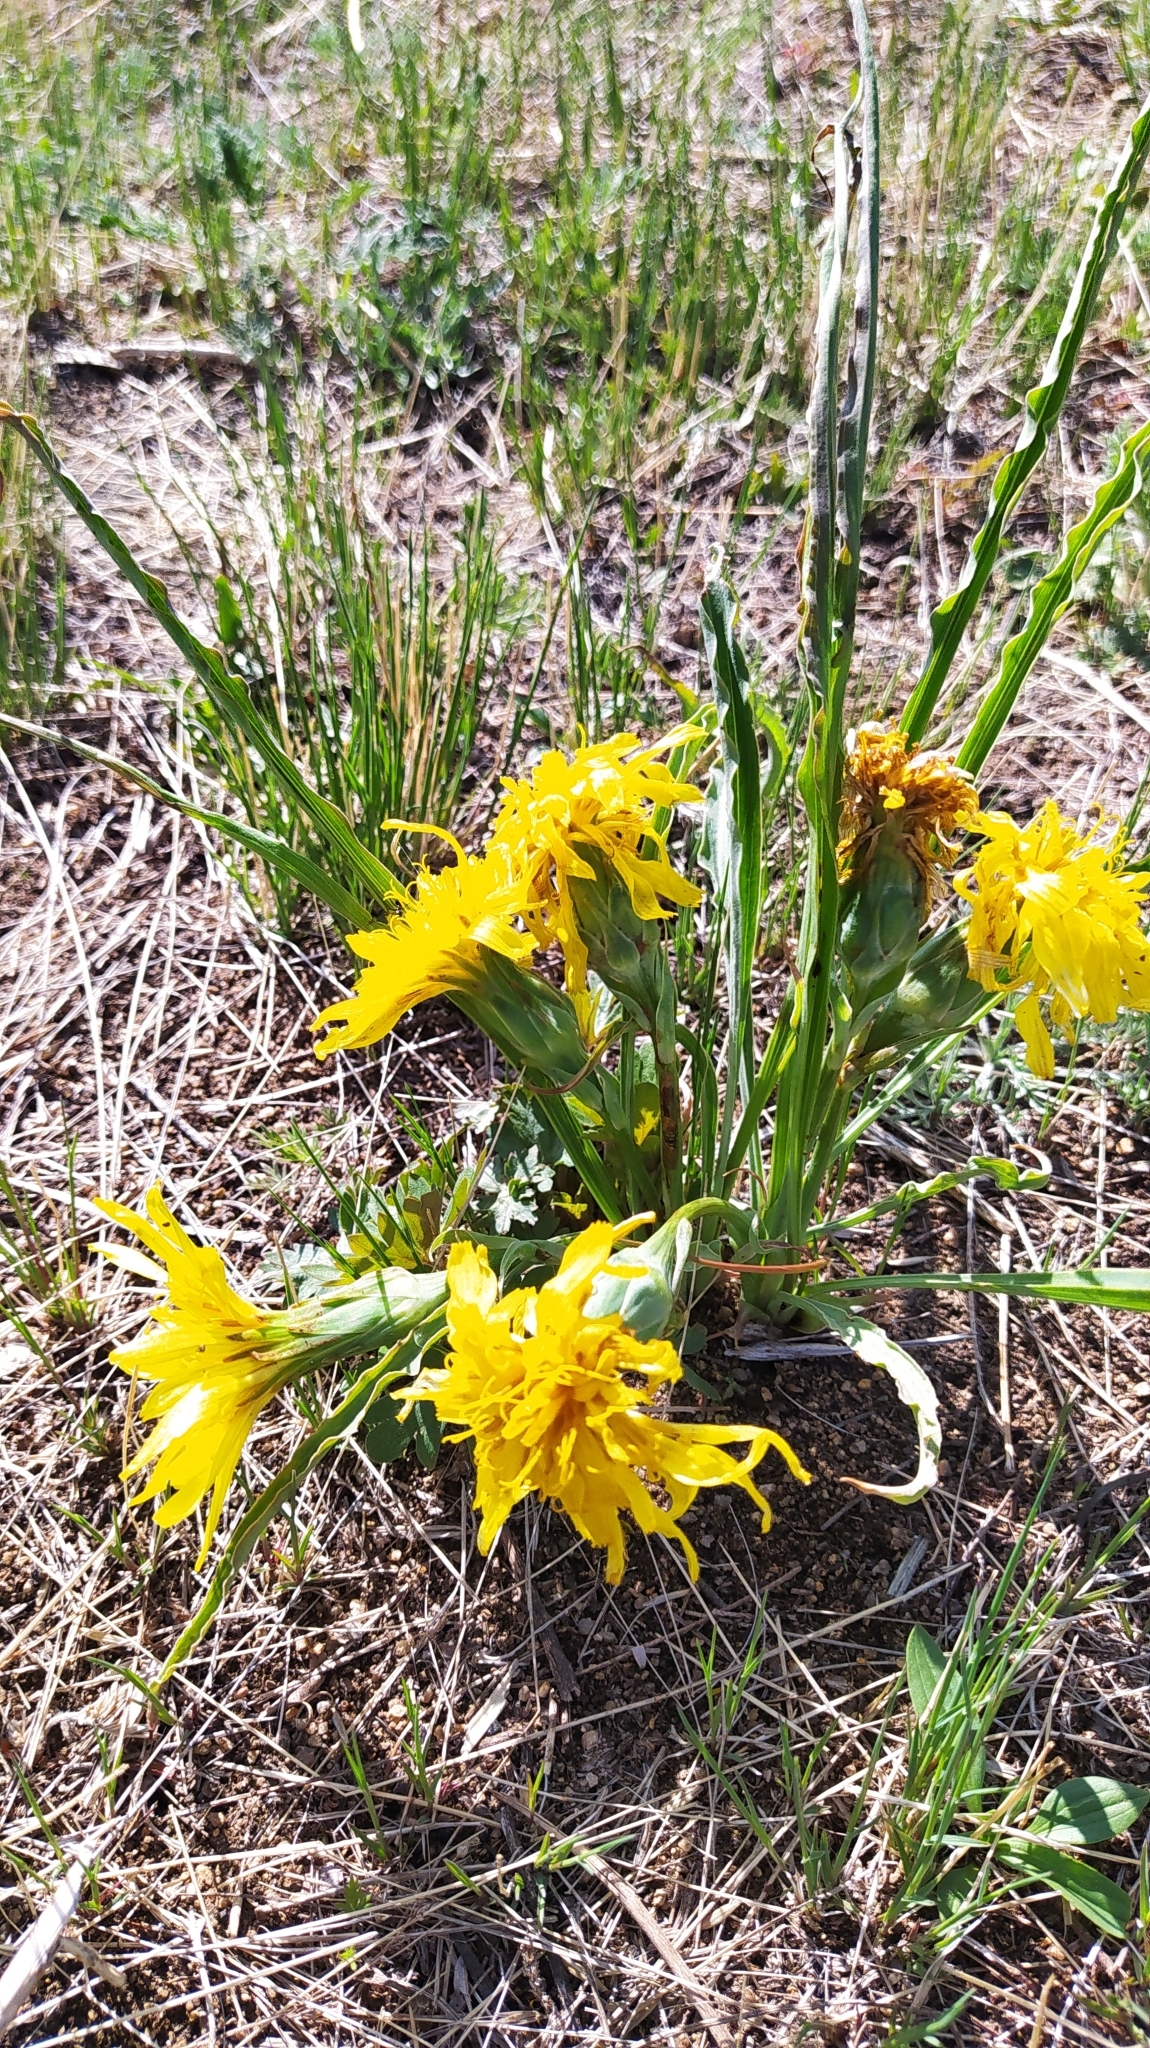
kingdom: Plantae
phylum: Tracheophyta
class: Magnoliopsida
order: Asterales
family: Asteraceae
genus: Takhtajaniantha
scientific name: Takhtajaniantha austriaca
